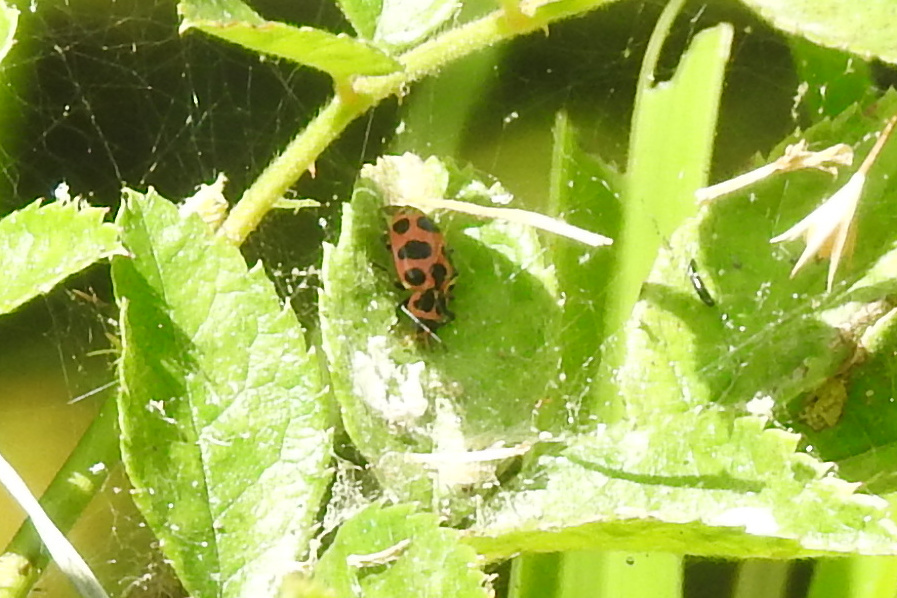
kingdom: Animalia
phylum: Arthropoda
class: Insecta
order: Coleoptera
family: Coccinellidae
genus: Coleomegilla
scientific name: Coleomegilla maculata
